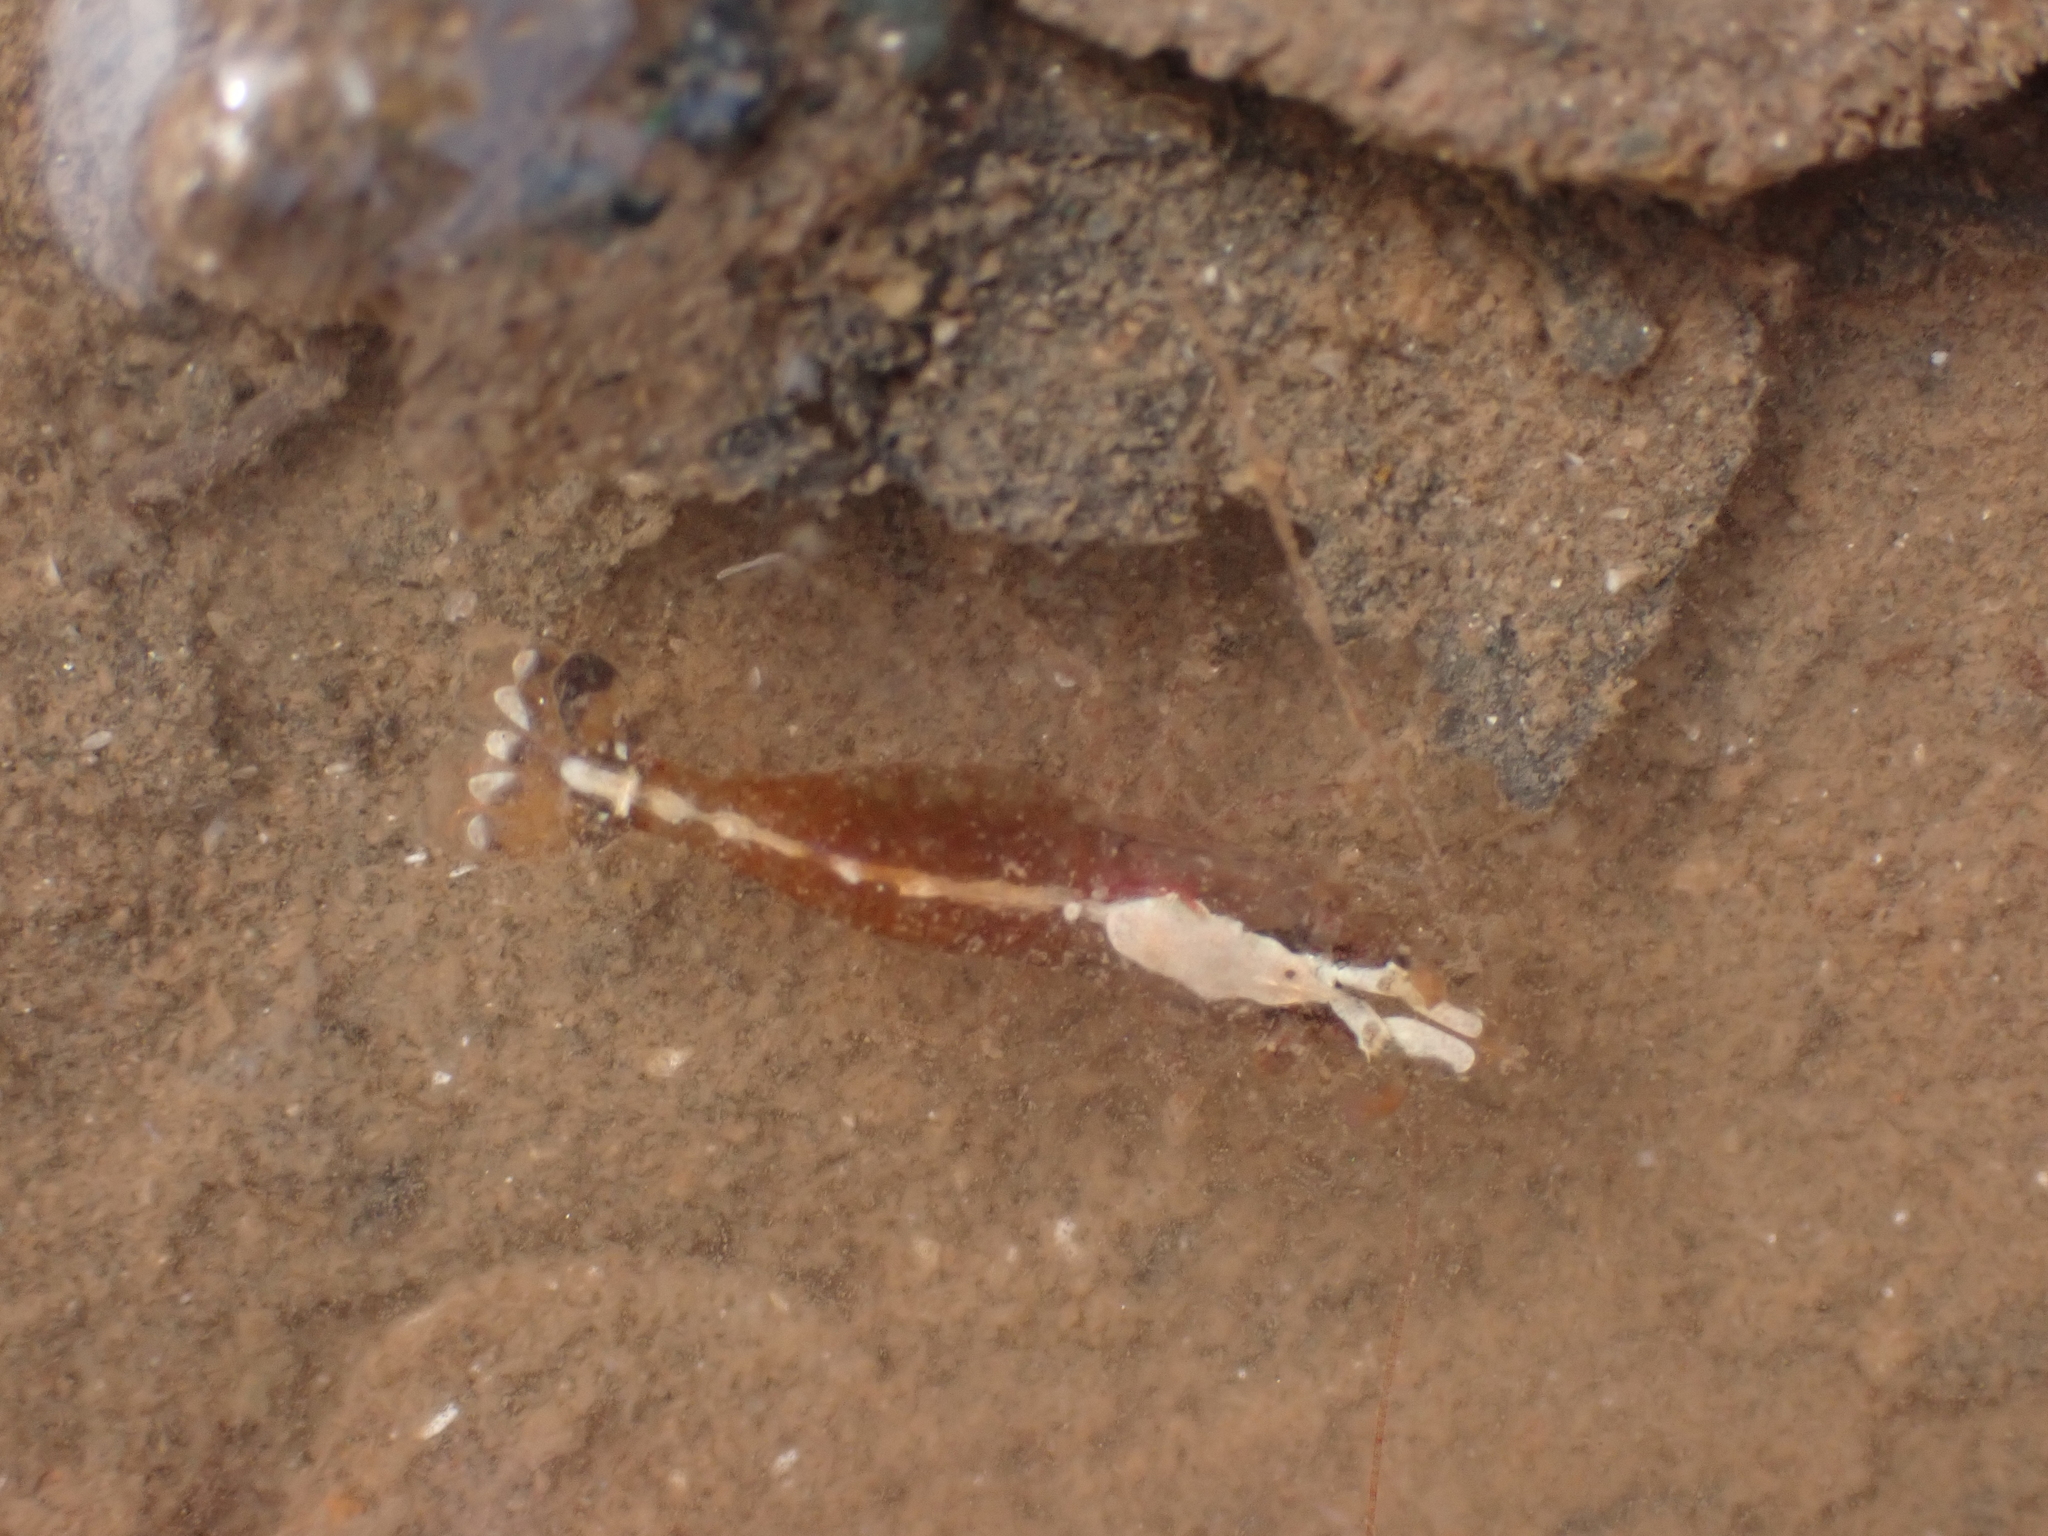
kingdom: Animalia
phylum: Arthropoda
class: Malacostraca
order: Decapoda
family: Thoridae
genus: Eualus
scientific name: Eualus pusiolus
